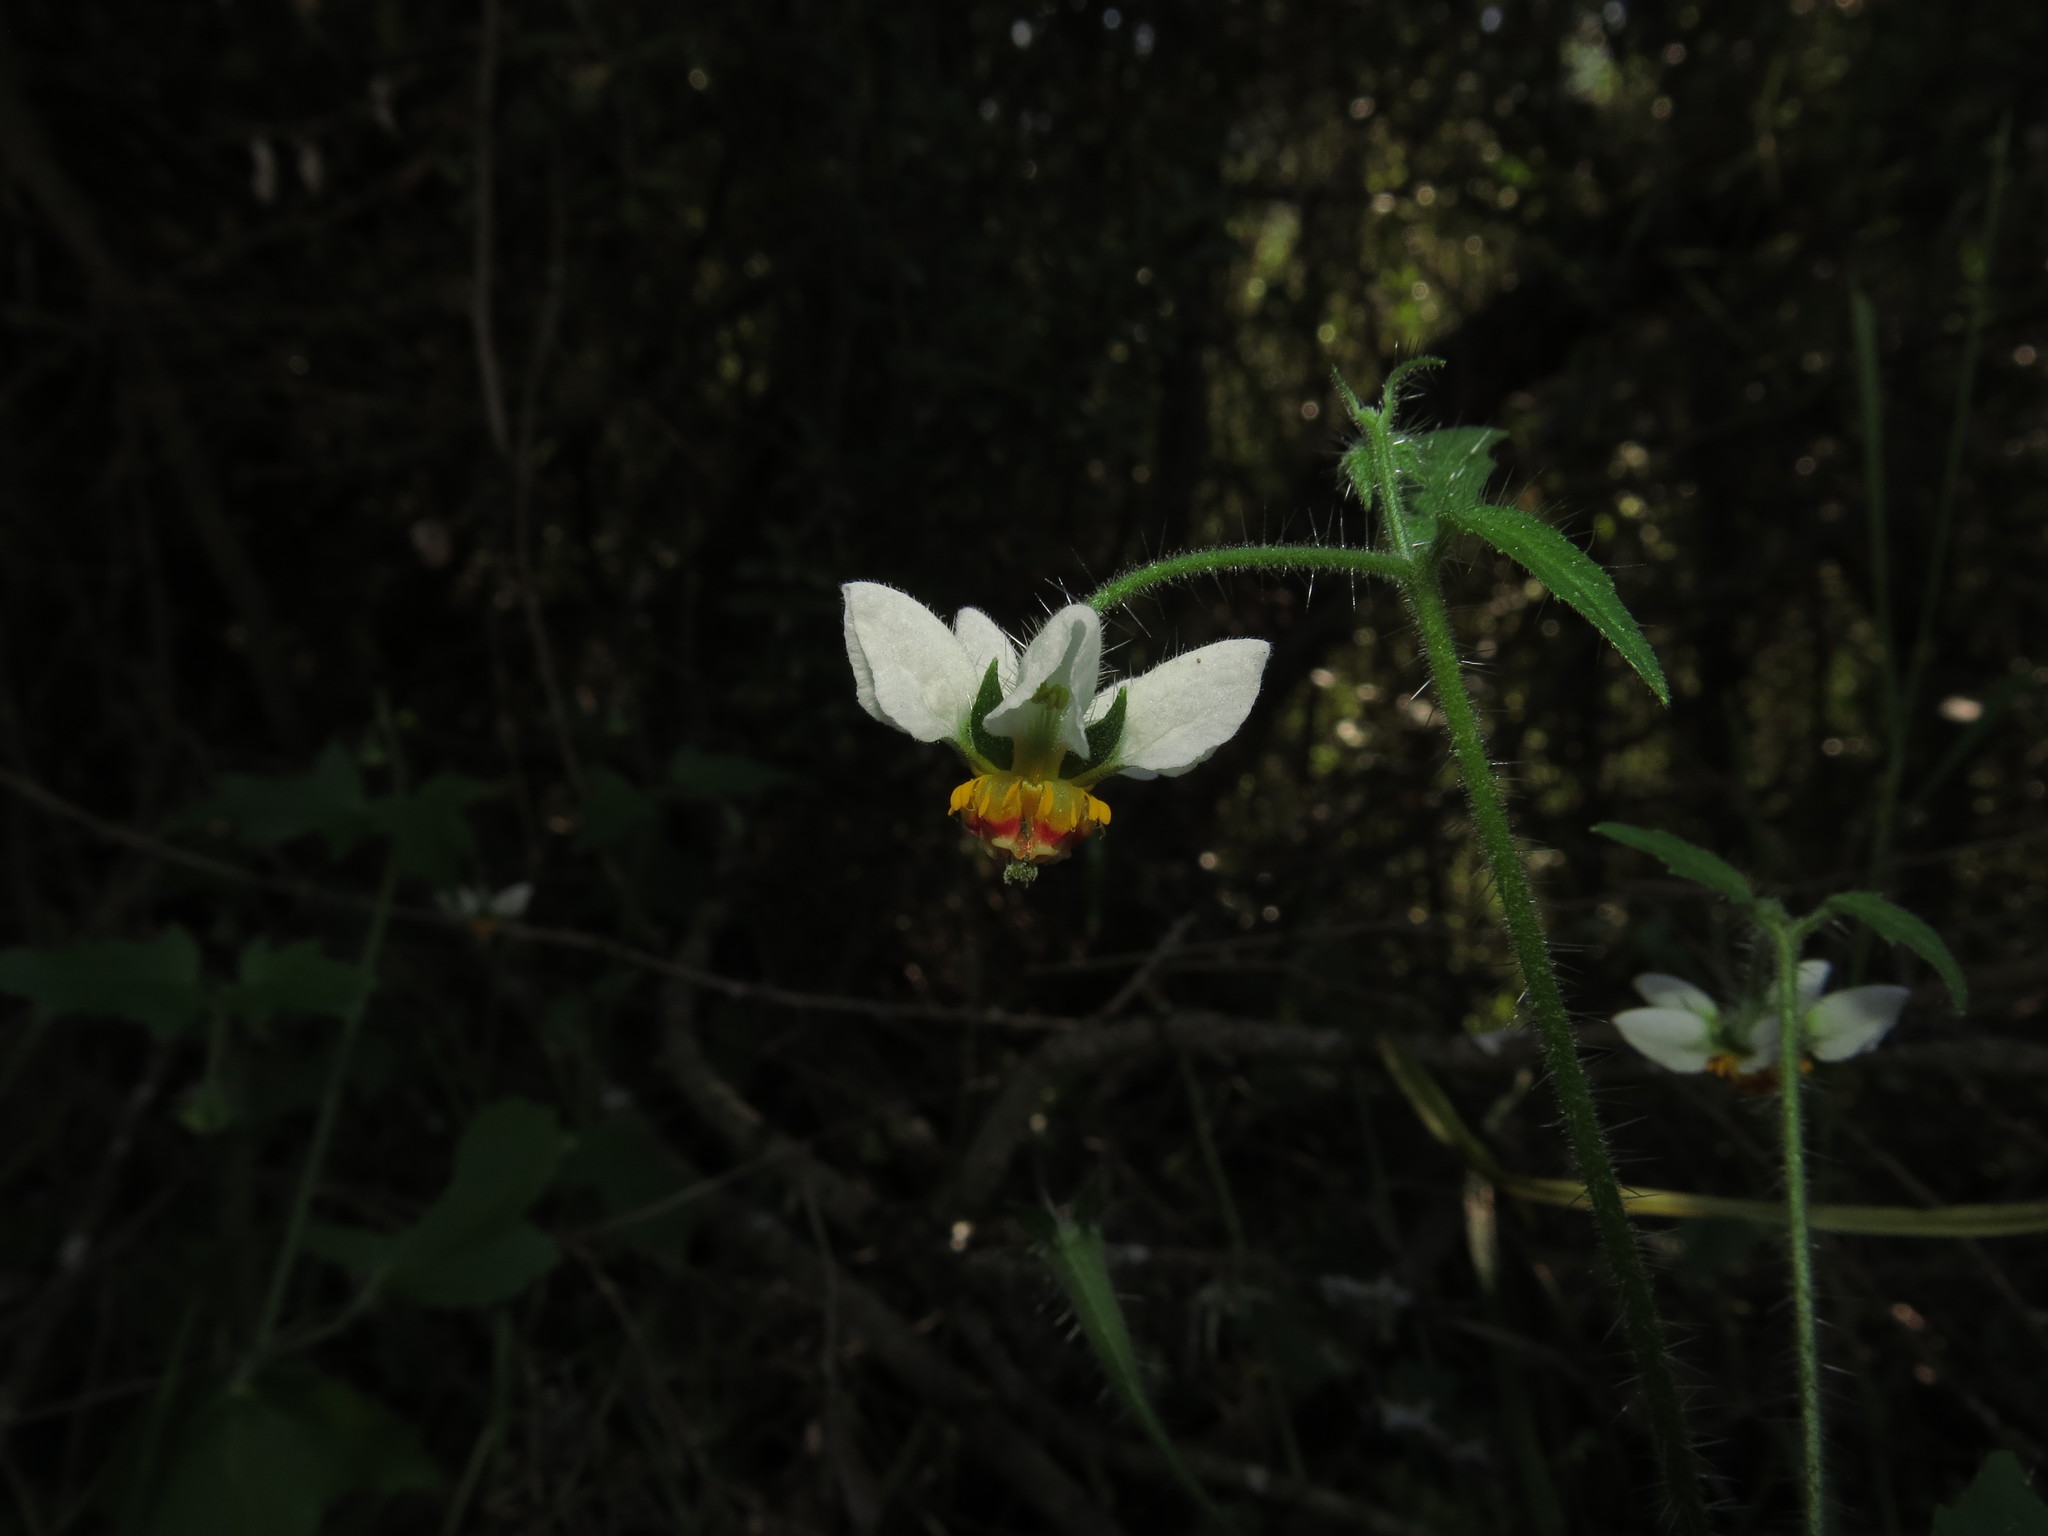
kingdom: Plantae
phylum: Tracheophyta
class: Magnoliopsida
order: Cornales
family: Loasaceae
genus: Loasa
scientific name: Loasa triloba
